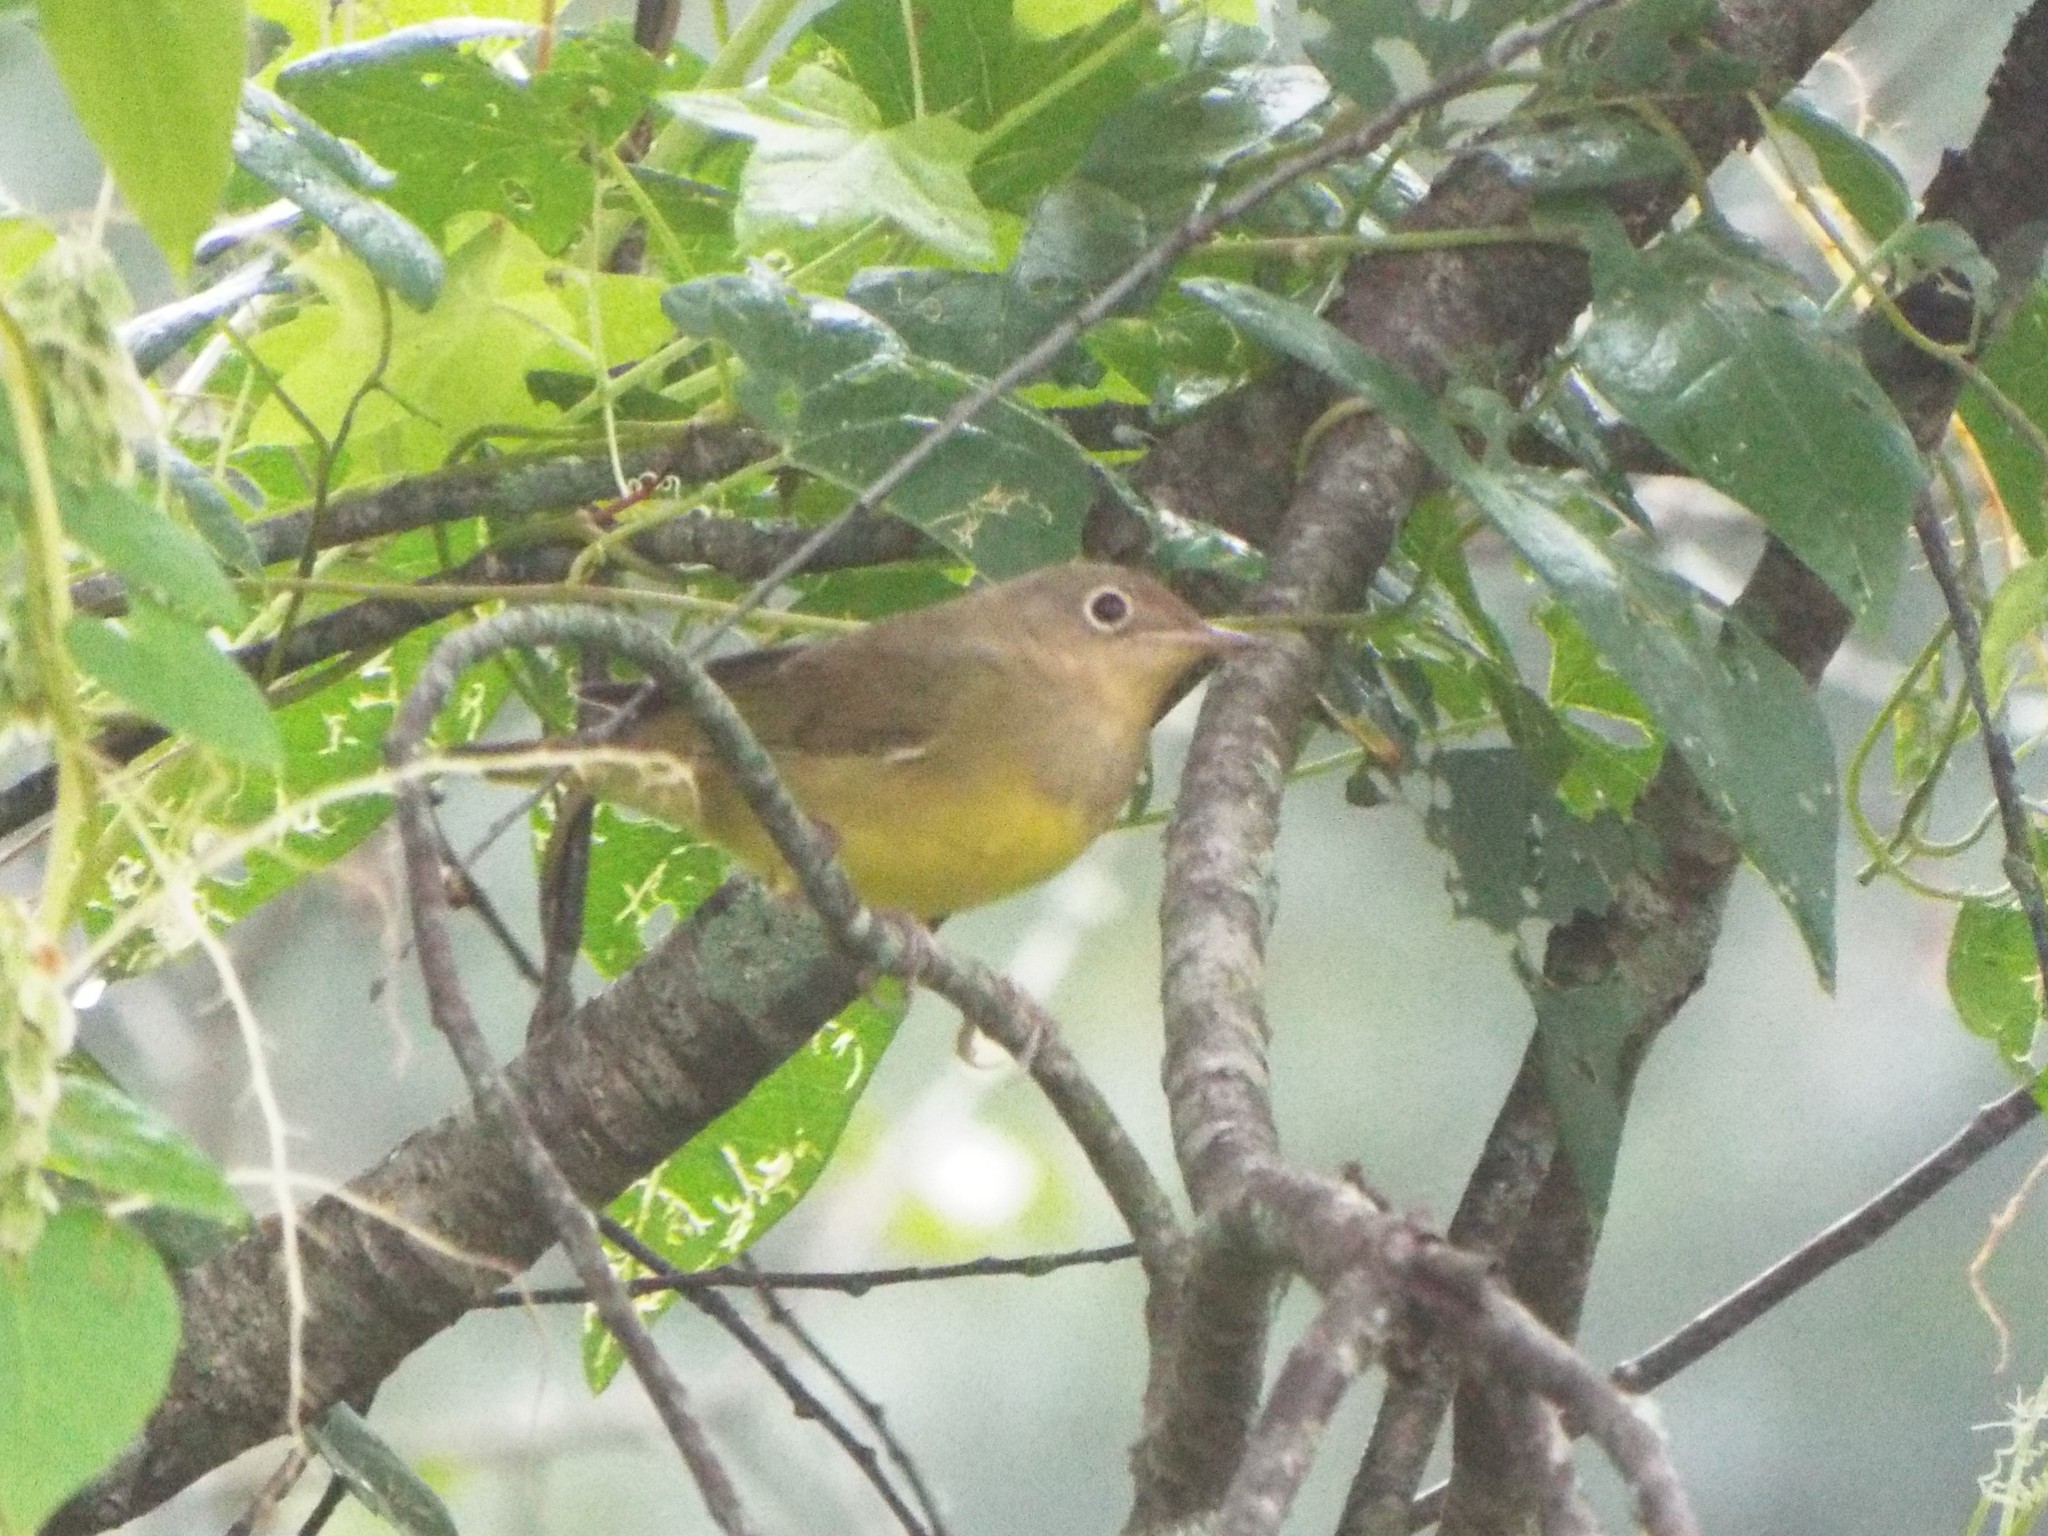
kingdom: Animalia
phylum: Chordata
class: Aves
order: Passeriformes
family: Parulidae
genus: Oporornis
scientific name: Oporornis agilis
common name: Connecticut warbler
